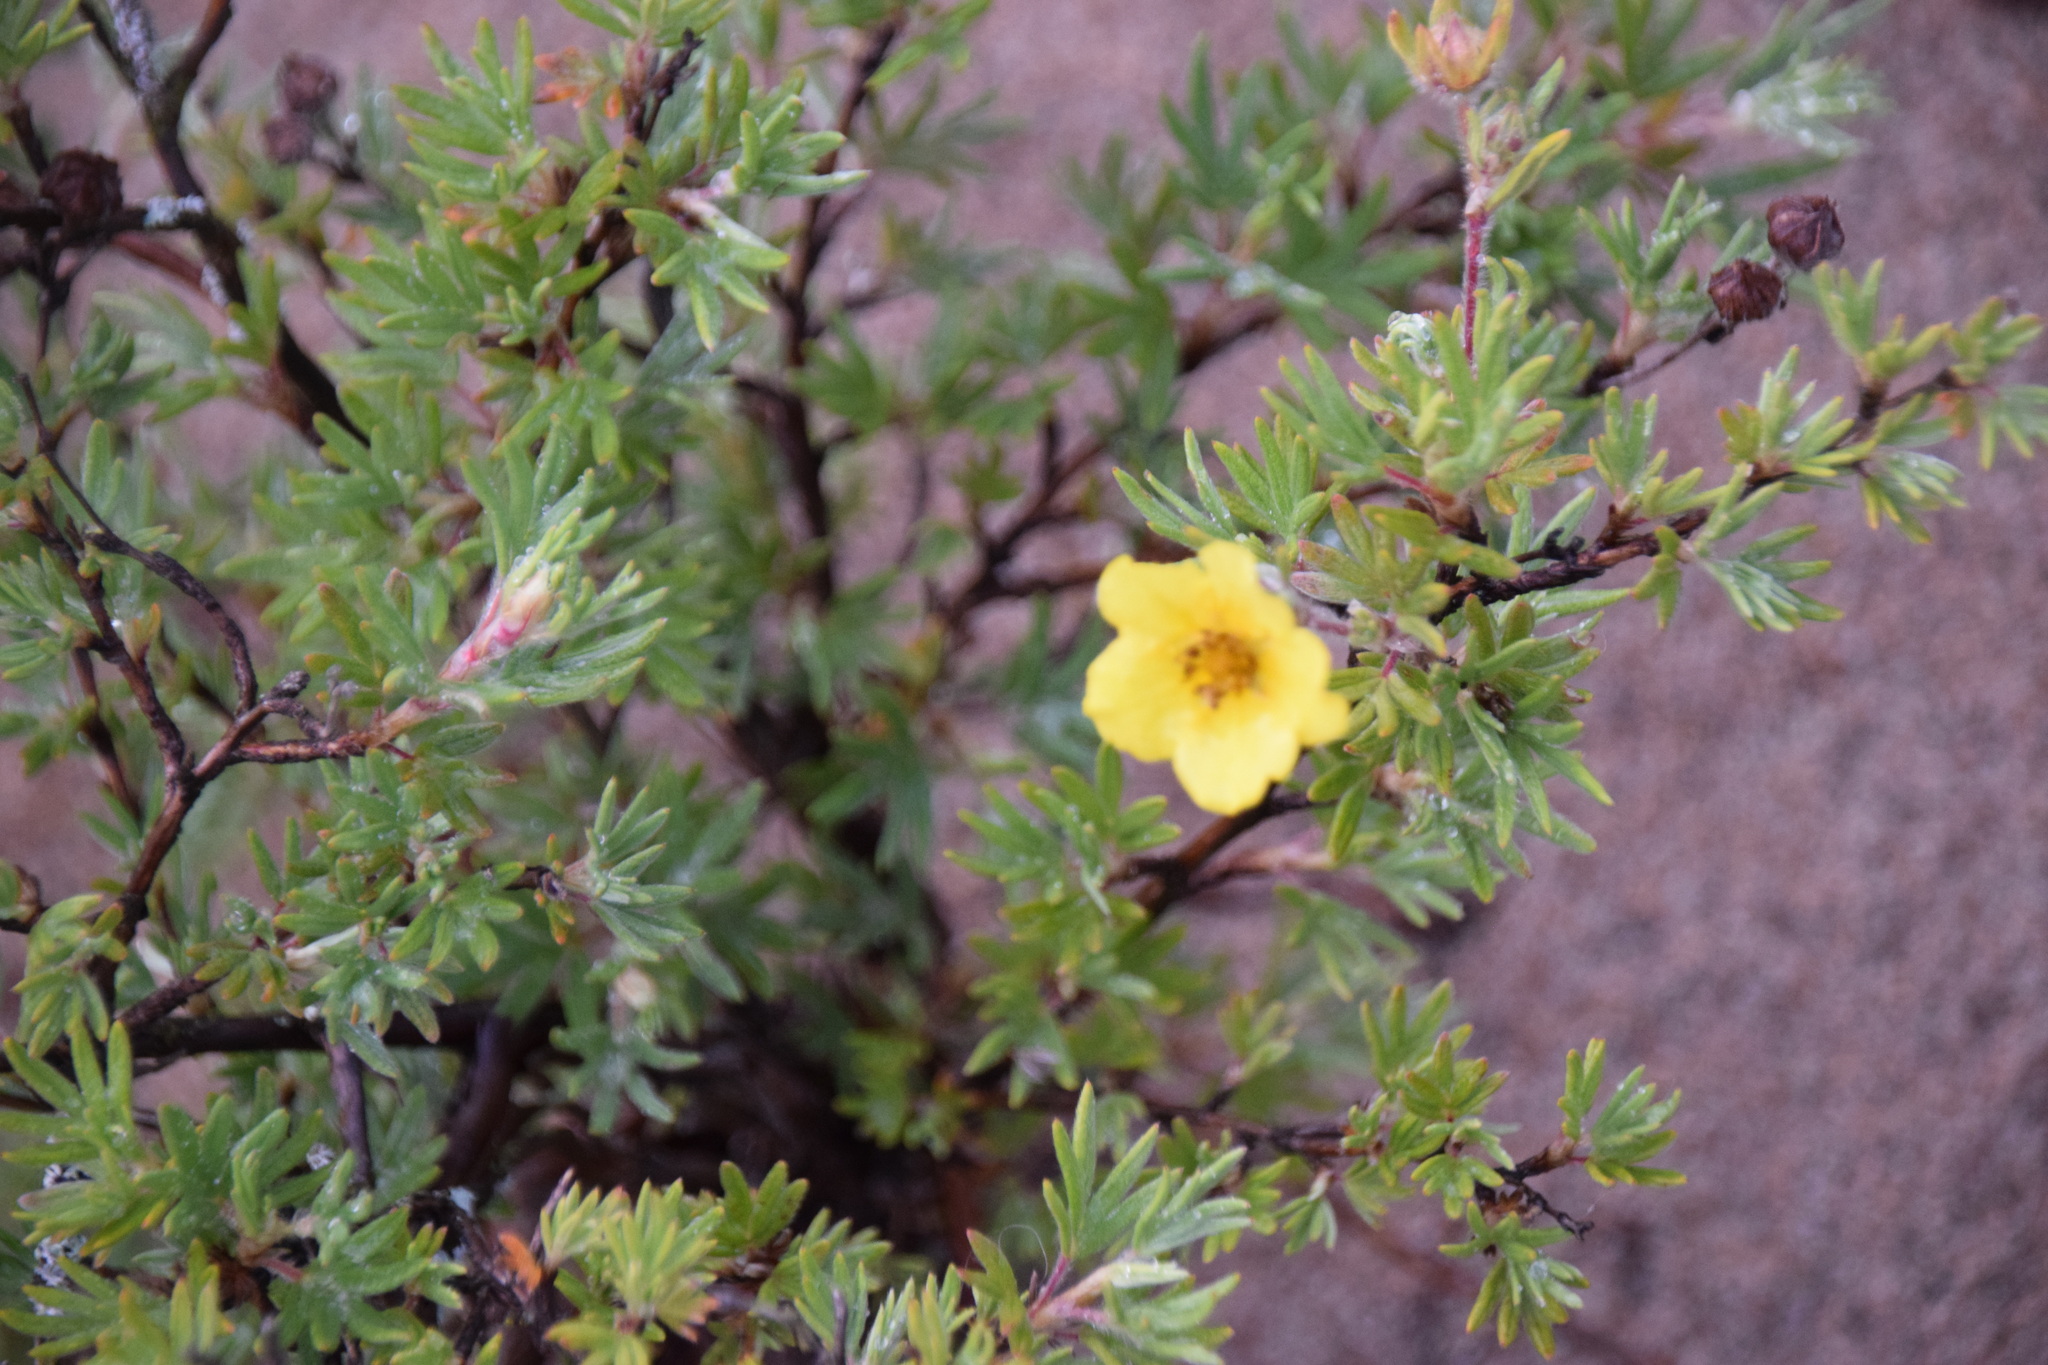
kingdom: Plantae
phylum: Tracheophyta
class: Magnoliopsida
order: Rosales
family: Rosaceae
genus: Dasiphora
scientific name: Dasiphora fruticosa
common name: Shrubby cinquefoil
